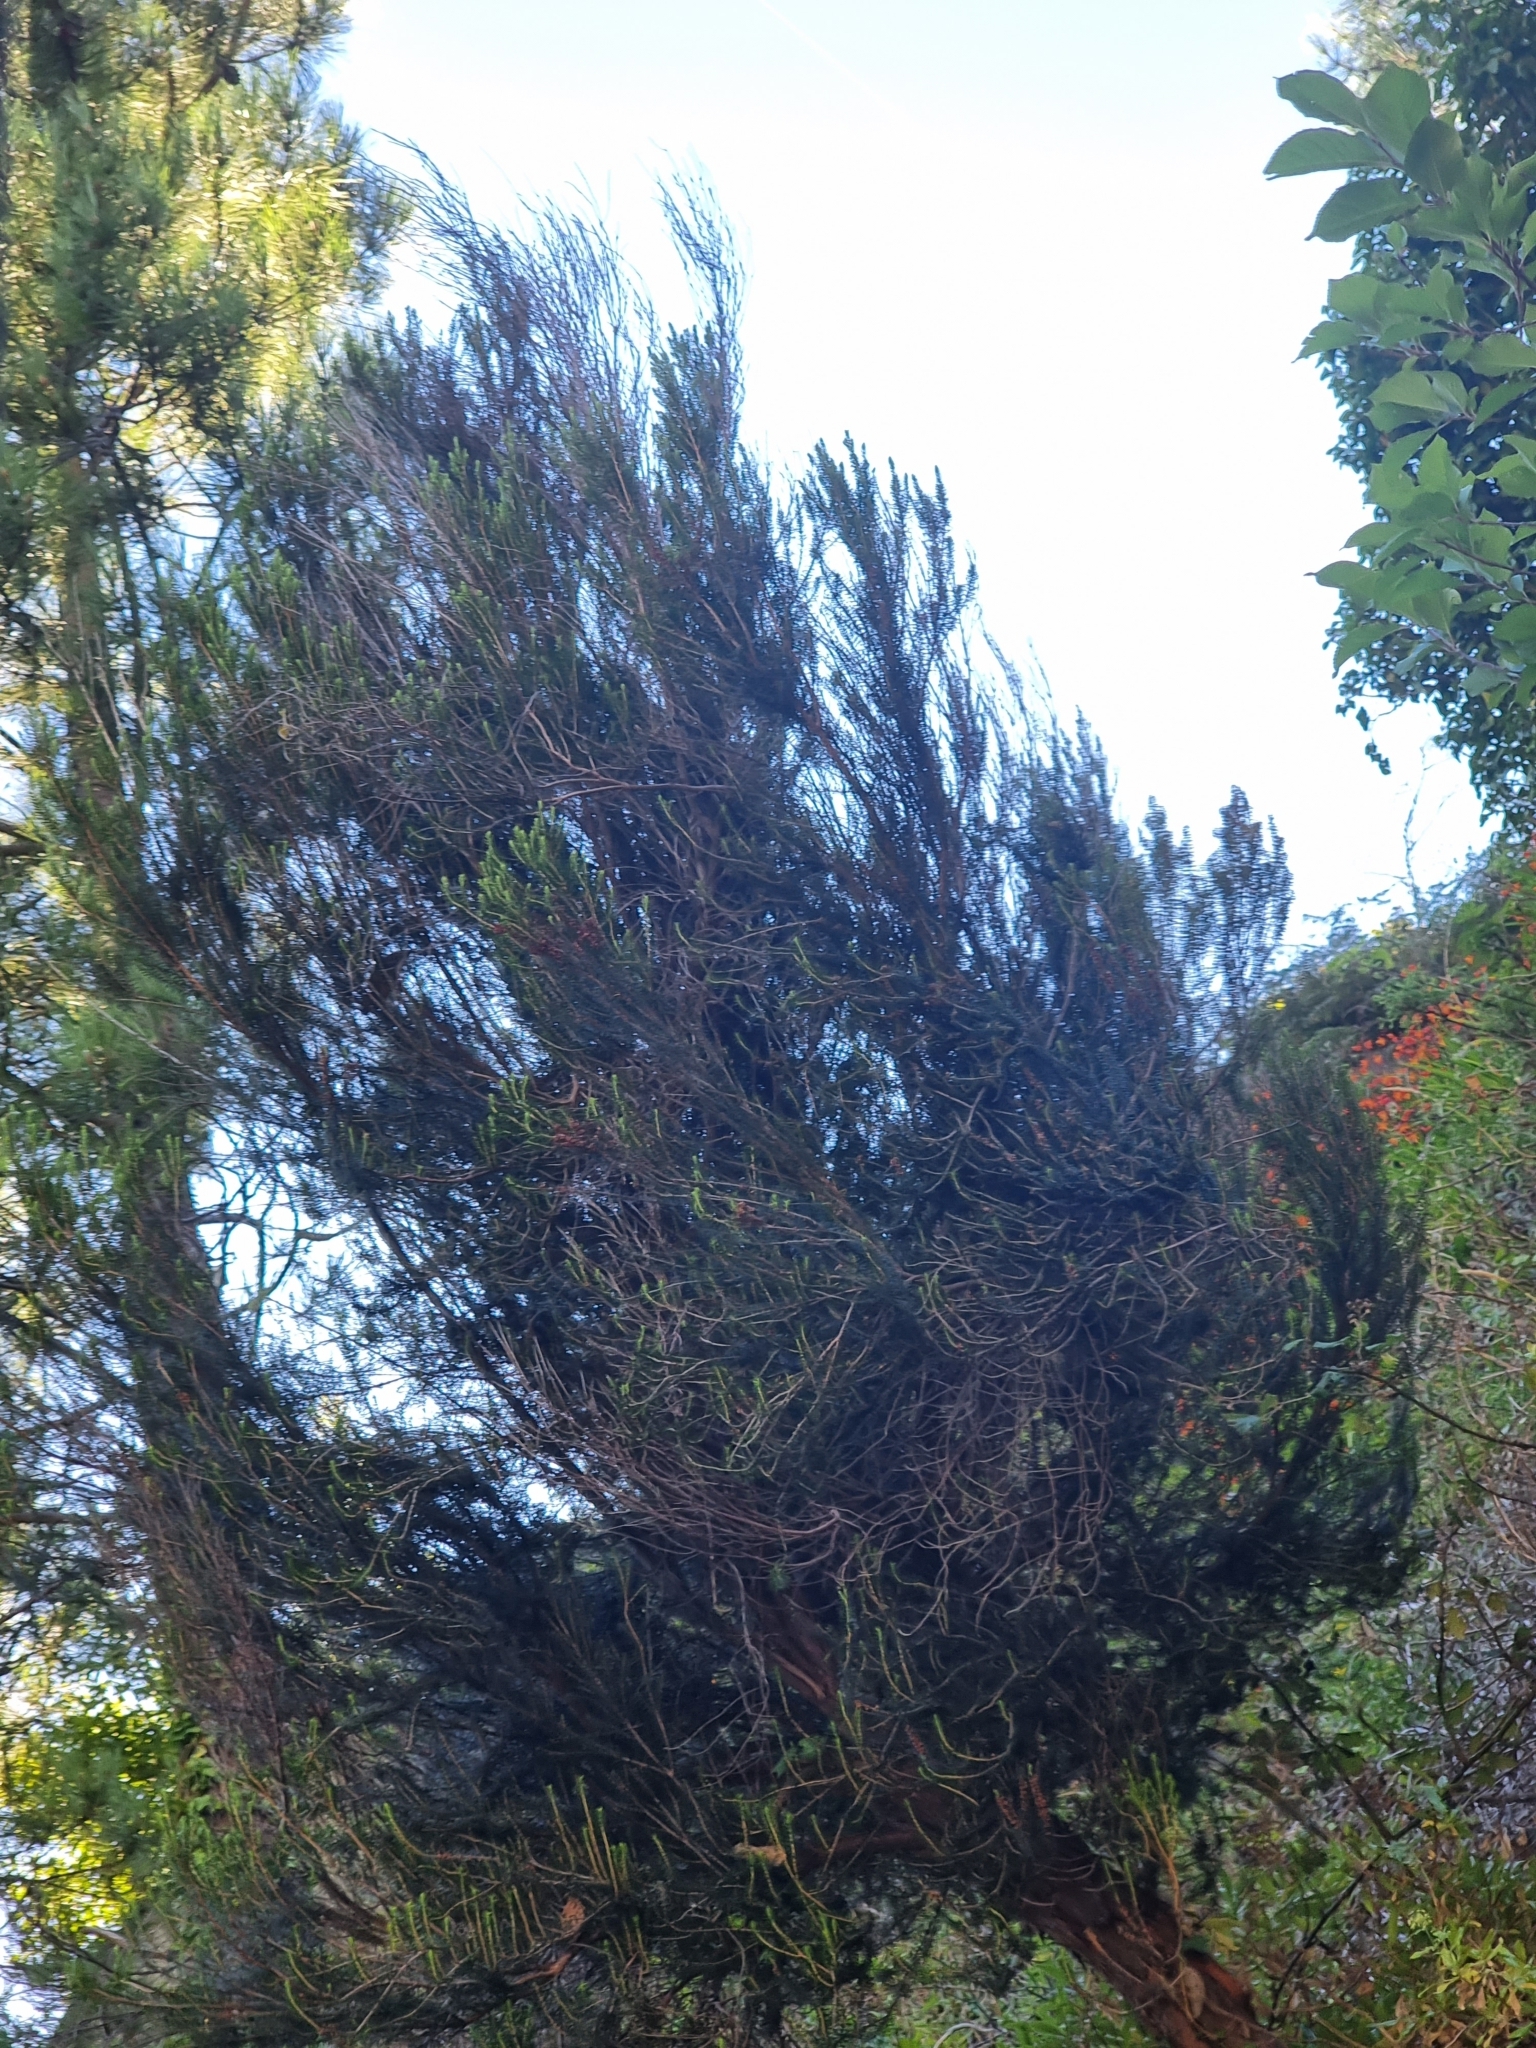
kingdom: Plantae
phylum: Tracheophyta
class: Magnoliopsida
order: Ericales
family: Ericaceae
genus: Erica
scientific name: Erica platycodon
